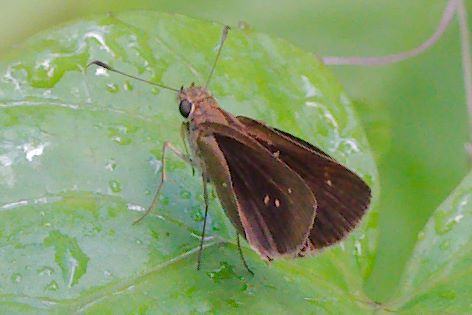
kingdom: Animalia
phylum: Arthropoda
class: Insecta
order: Lepidoptera
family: Hesperiidae
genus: Cymaenes
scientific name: Cymaenes tripunctus
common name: Dingy dotted skipper
